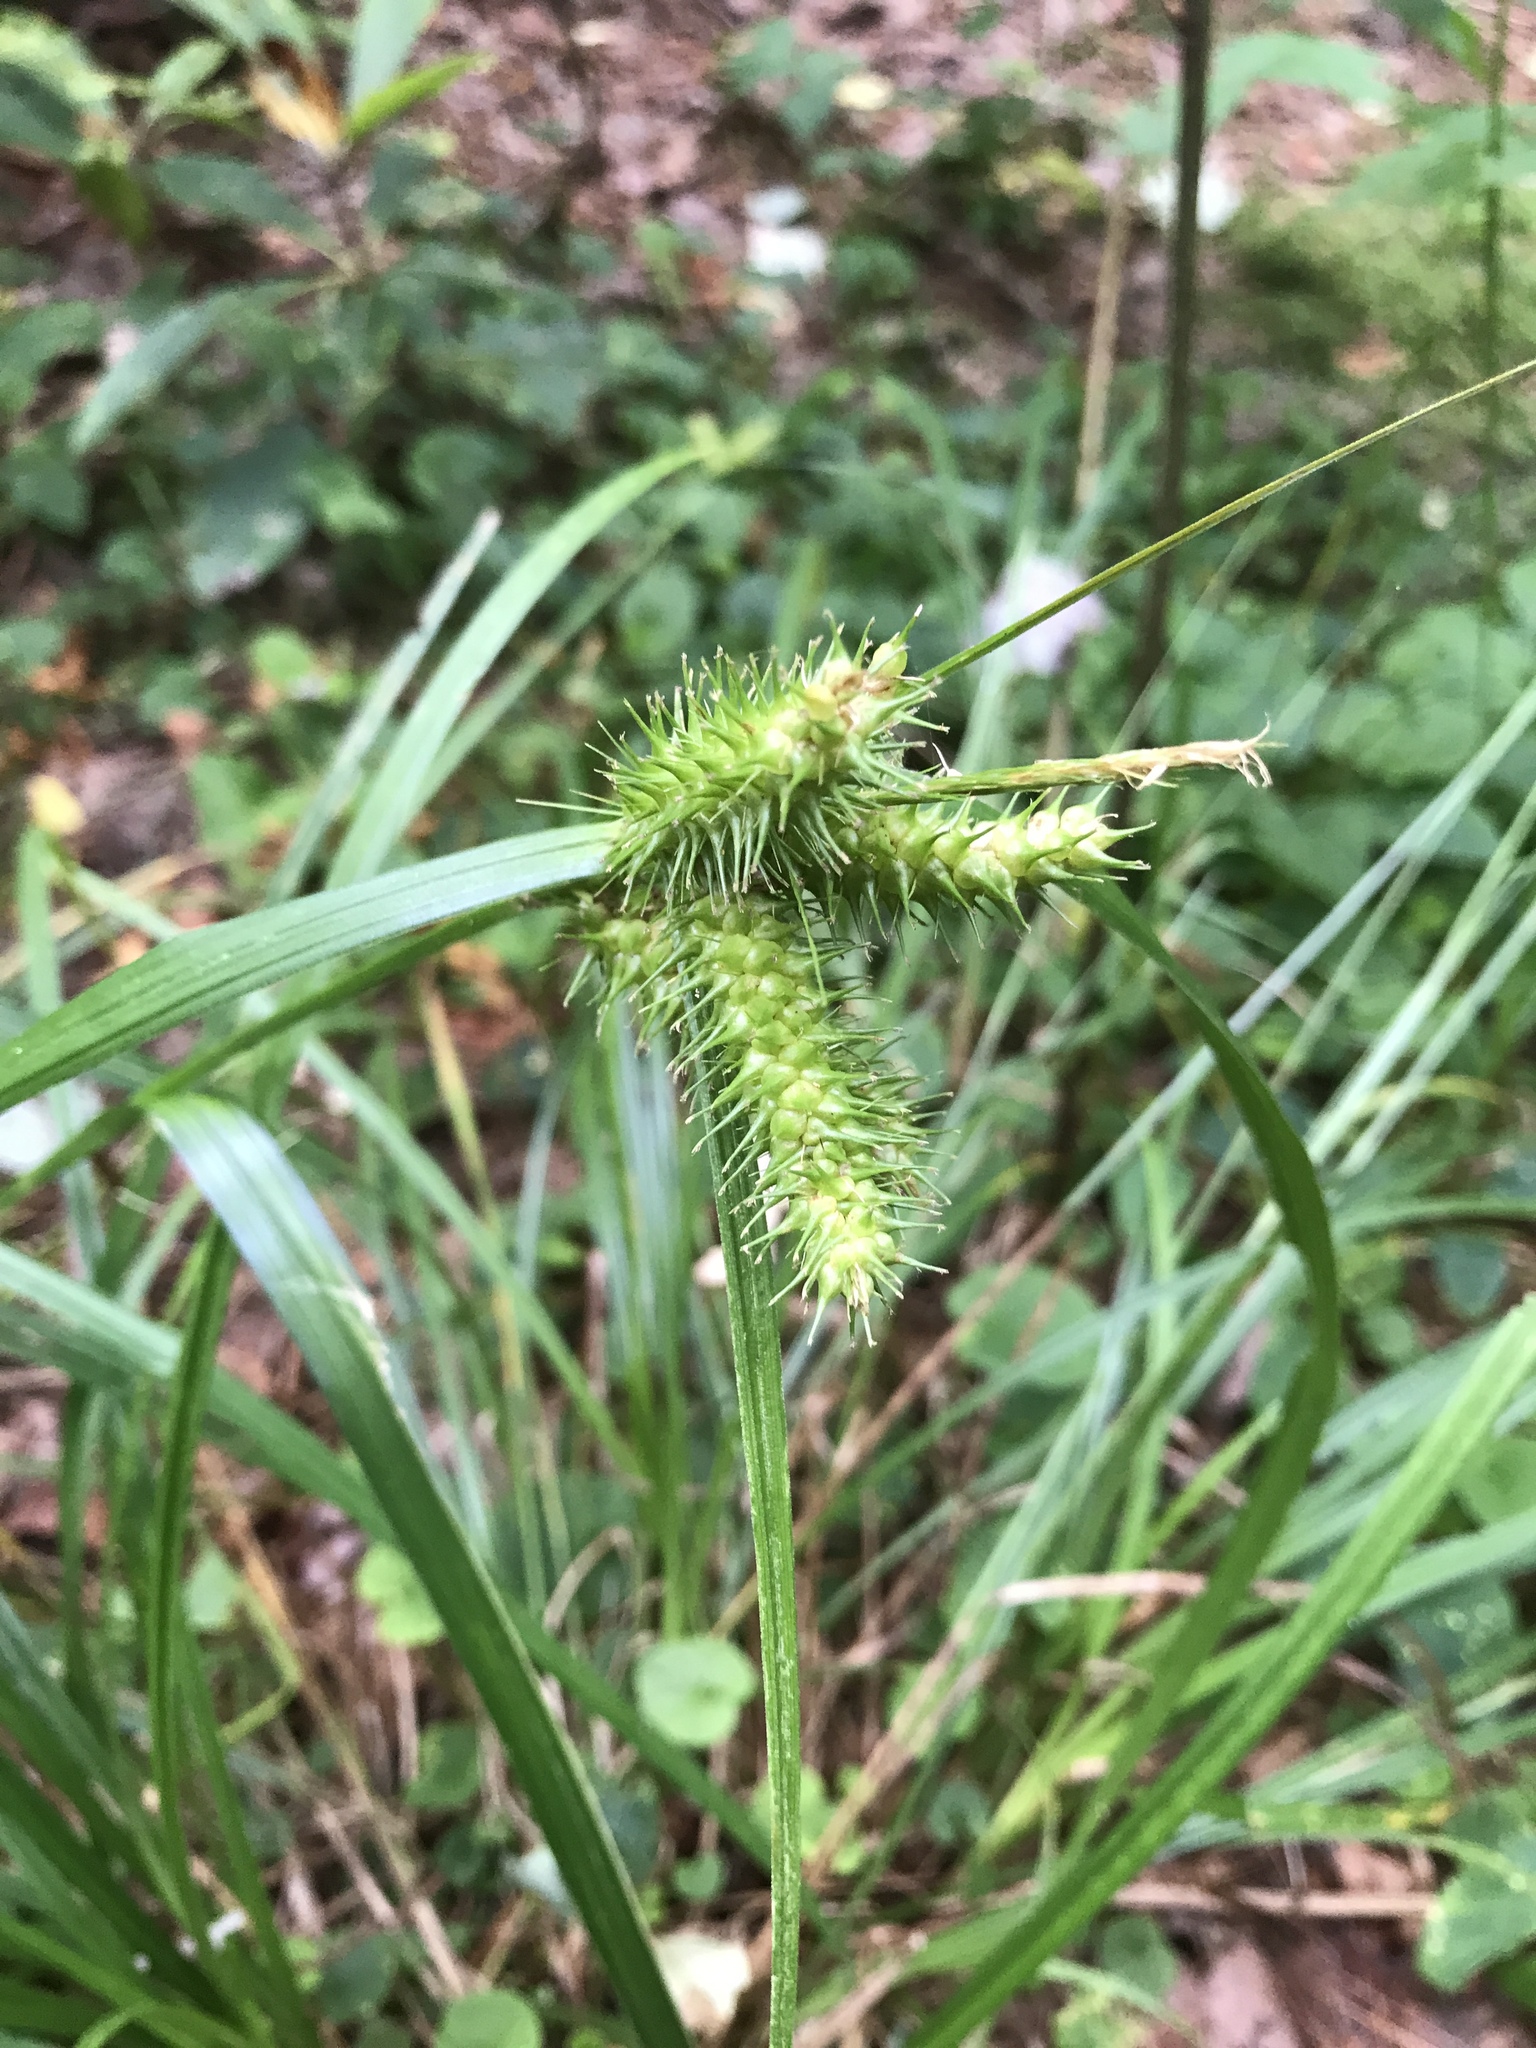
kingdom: Plantae
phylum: Tracheophyta
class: Liliopsida
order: Poales
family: Cyperaceae
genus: Carex
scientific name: Carex lurida
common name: Sallow sedge
